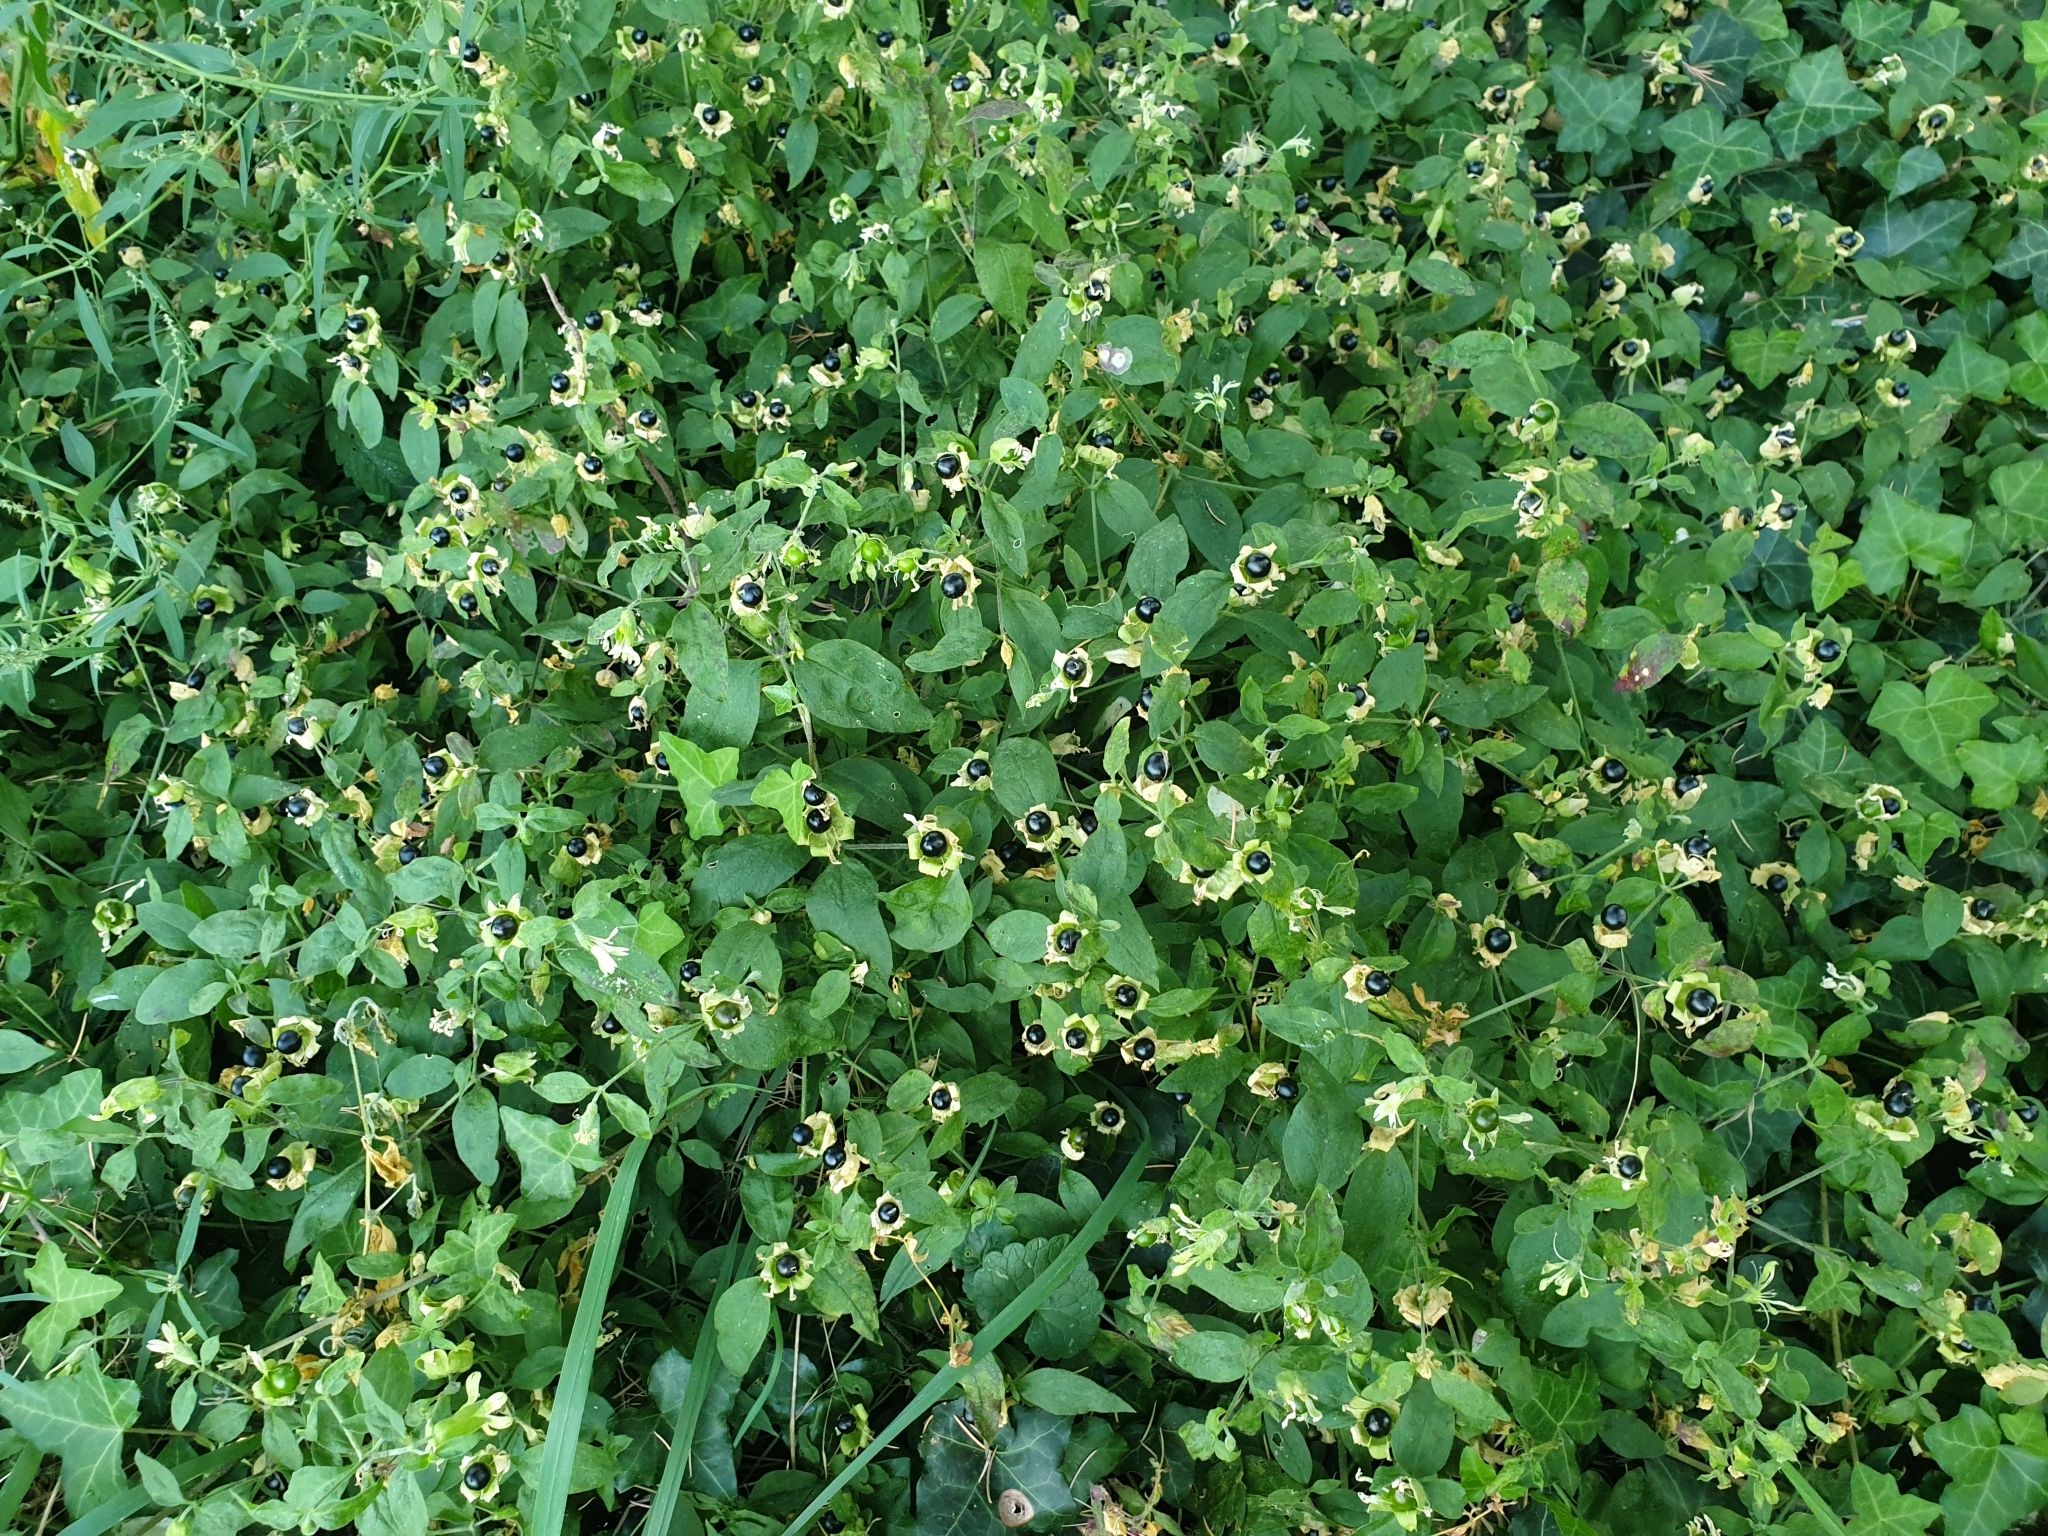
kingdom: Plantae
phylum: Tracheophyta
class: Magnoliopsida
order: Caryophyllales
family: Caryophyllaceae
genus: Silene
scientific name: Silene baccifera
